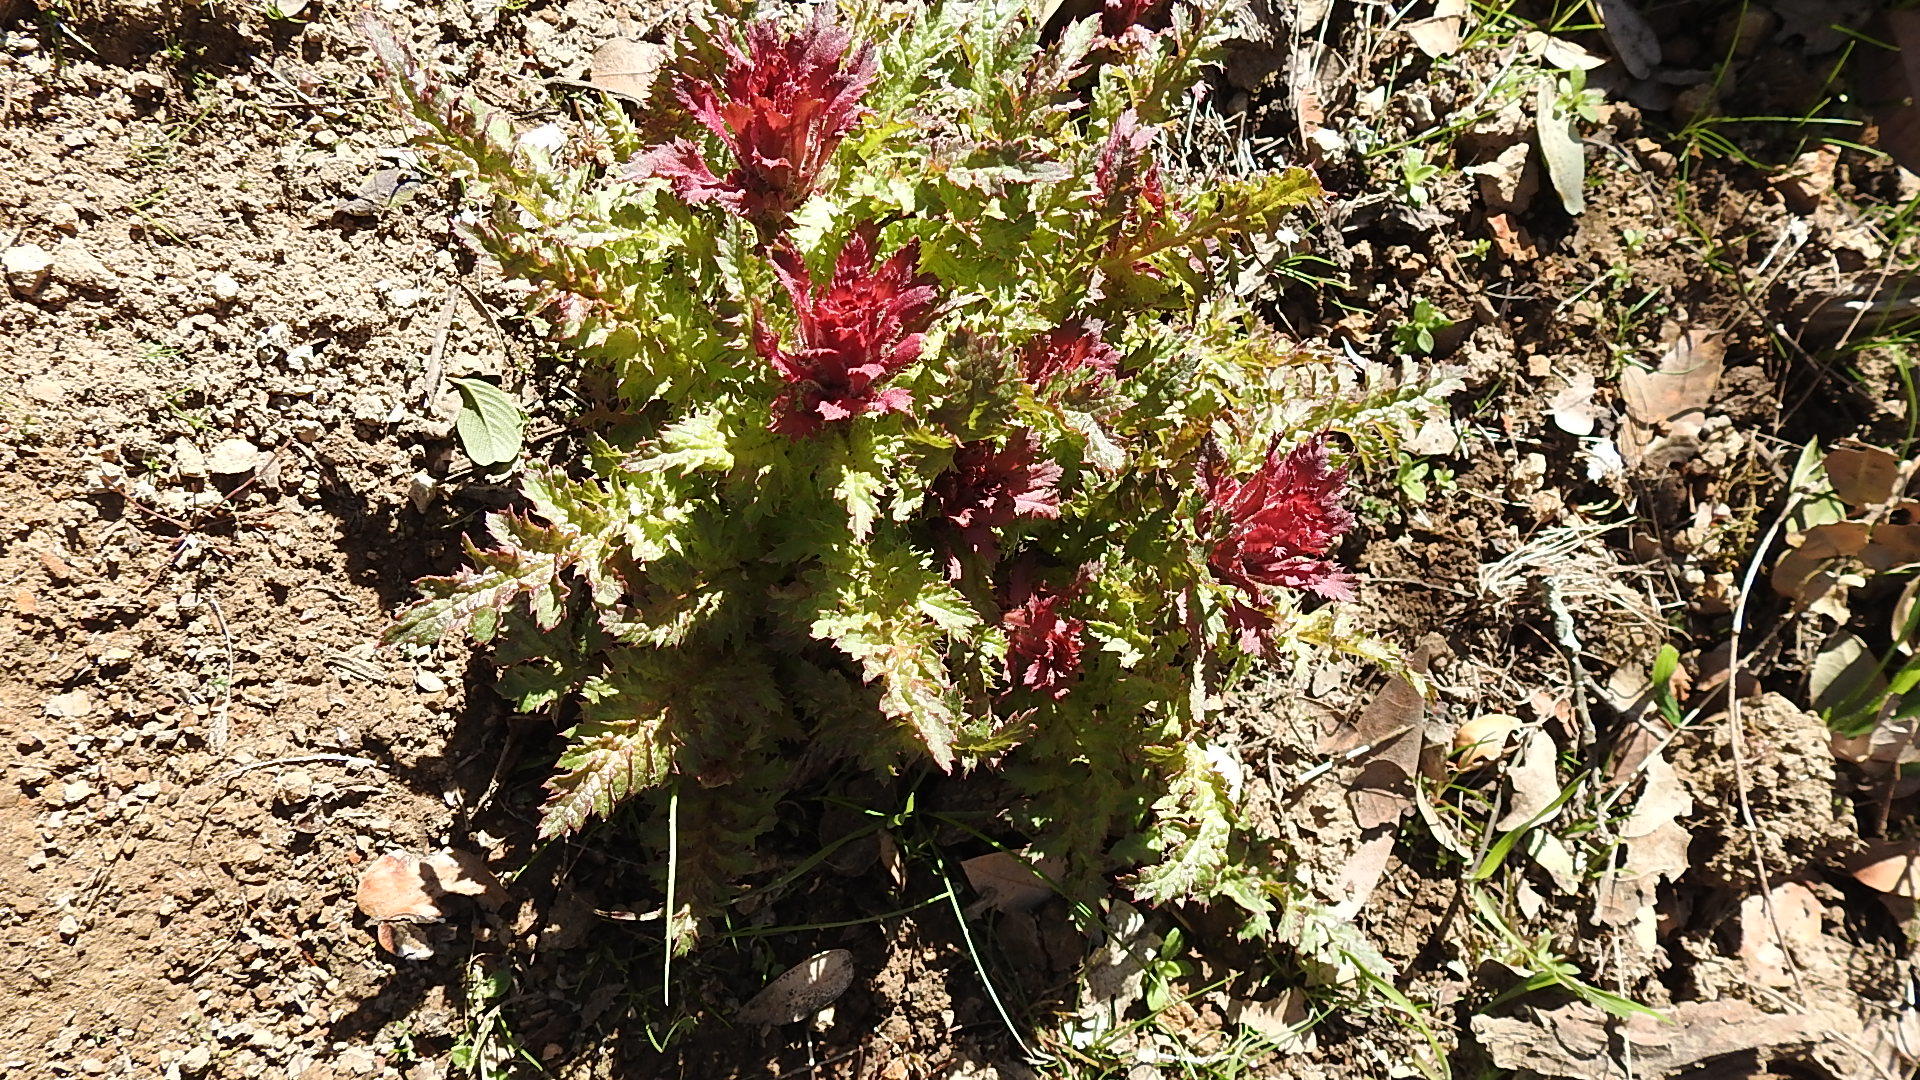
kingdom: Plantae
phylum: Tracheophyta
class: Magnoliopsida
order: Lamiales
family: Orobanchaceae
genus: Pedicularis
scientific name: Pedicularis densiflora
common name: Indian warrior
